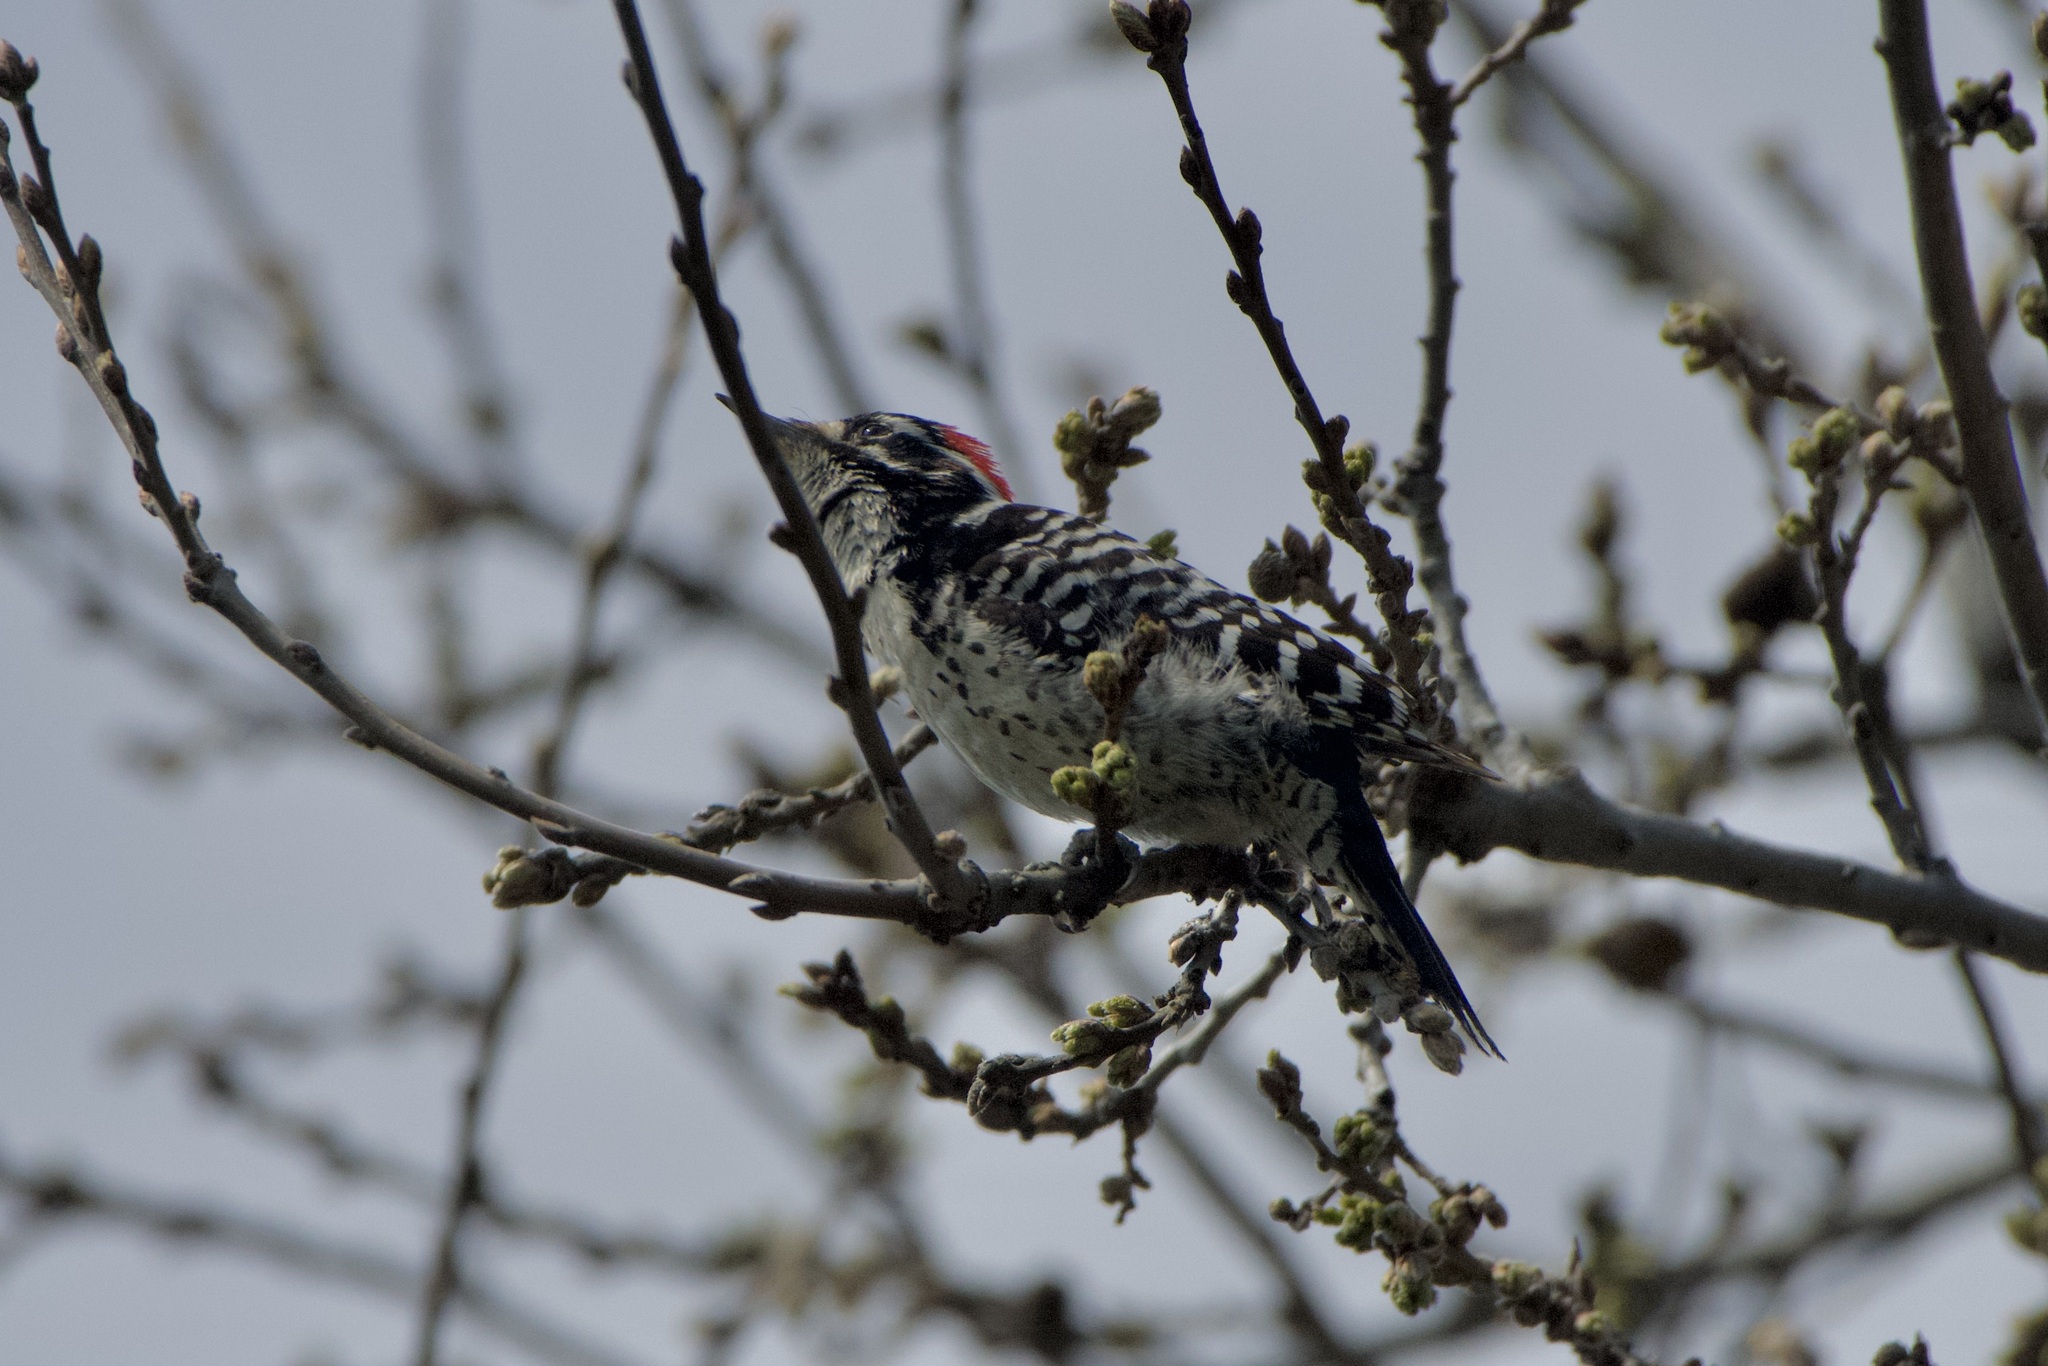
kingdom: Animalia
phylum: Chordata
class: Aves
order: Piciformes
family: Picidae
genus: Dryobates
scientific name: Dryobates nuttallii
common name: Nuttall's woodpecker
